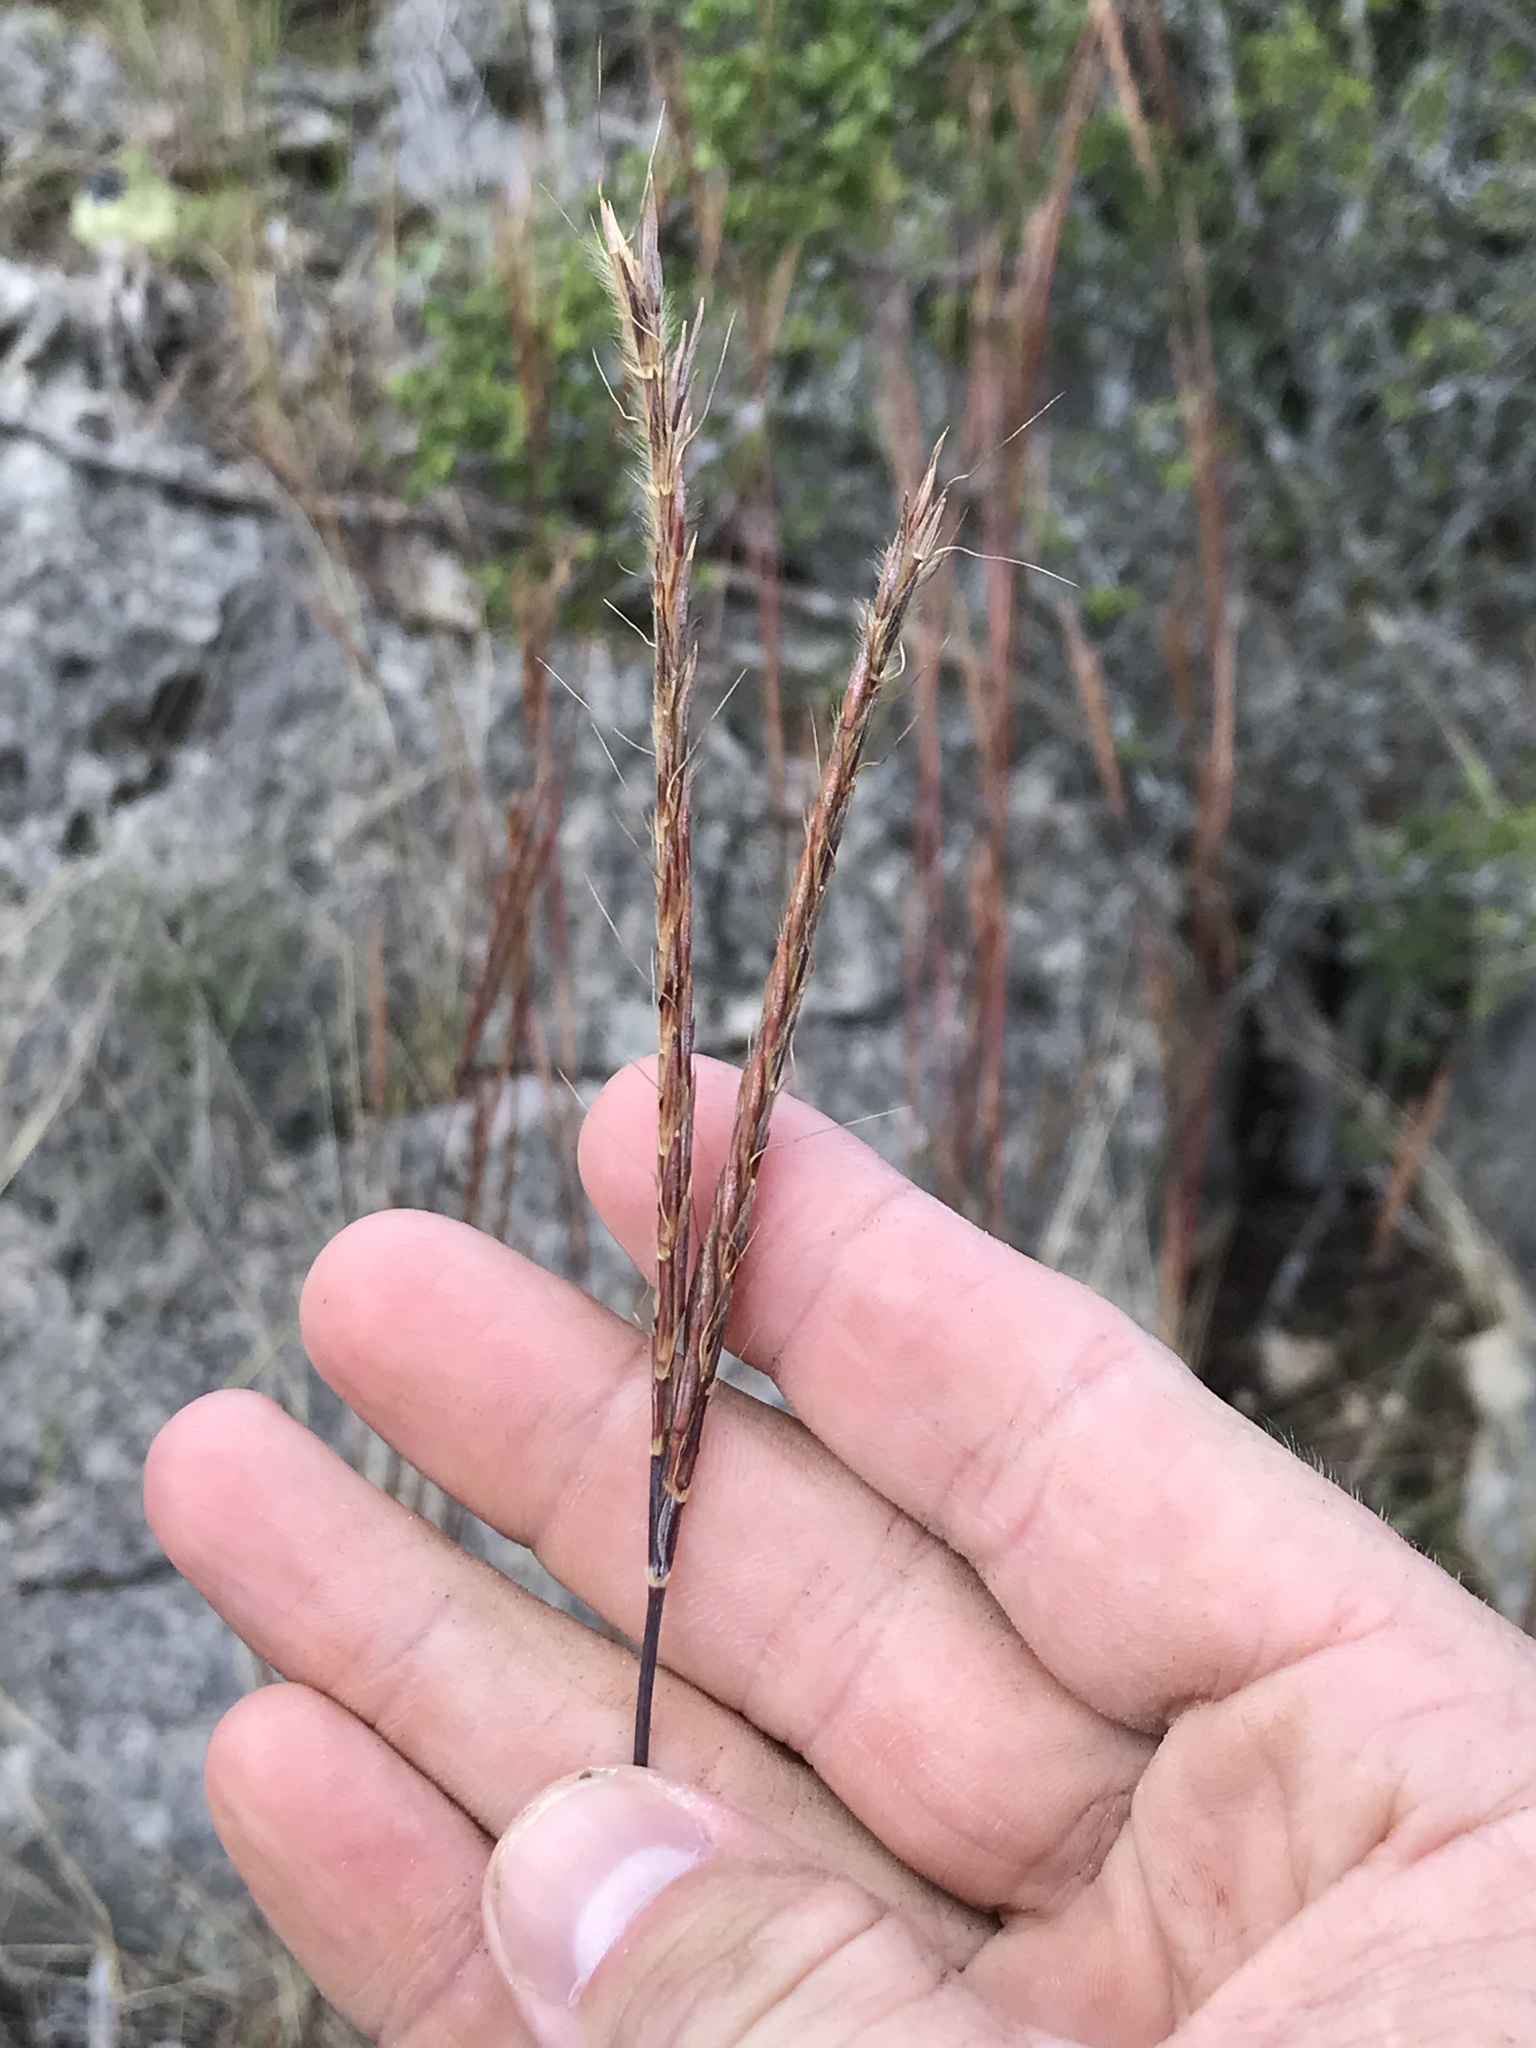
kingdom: Plantae
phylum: Tracheophyta
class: Liliopsida
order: Poales
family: Poaceae
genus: Andropogon
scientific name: Andropogon gerardi
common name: Big bluestem
